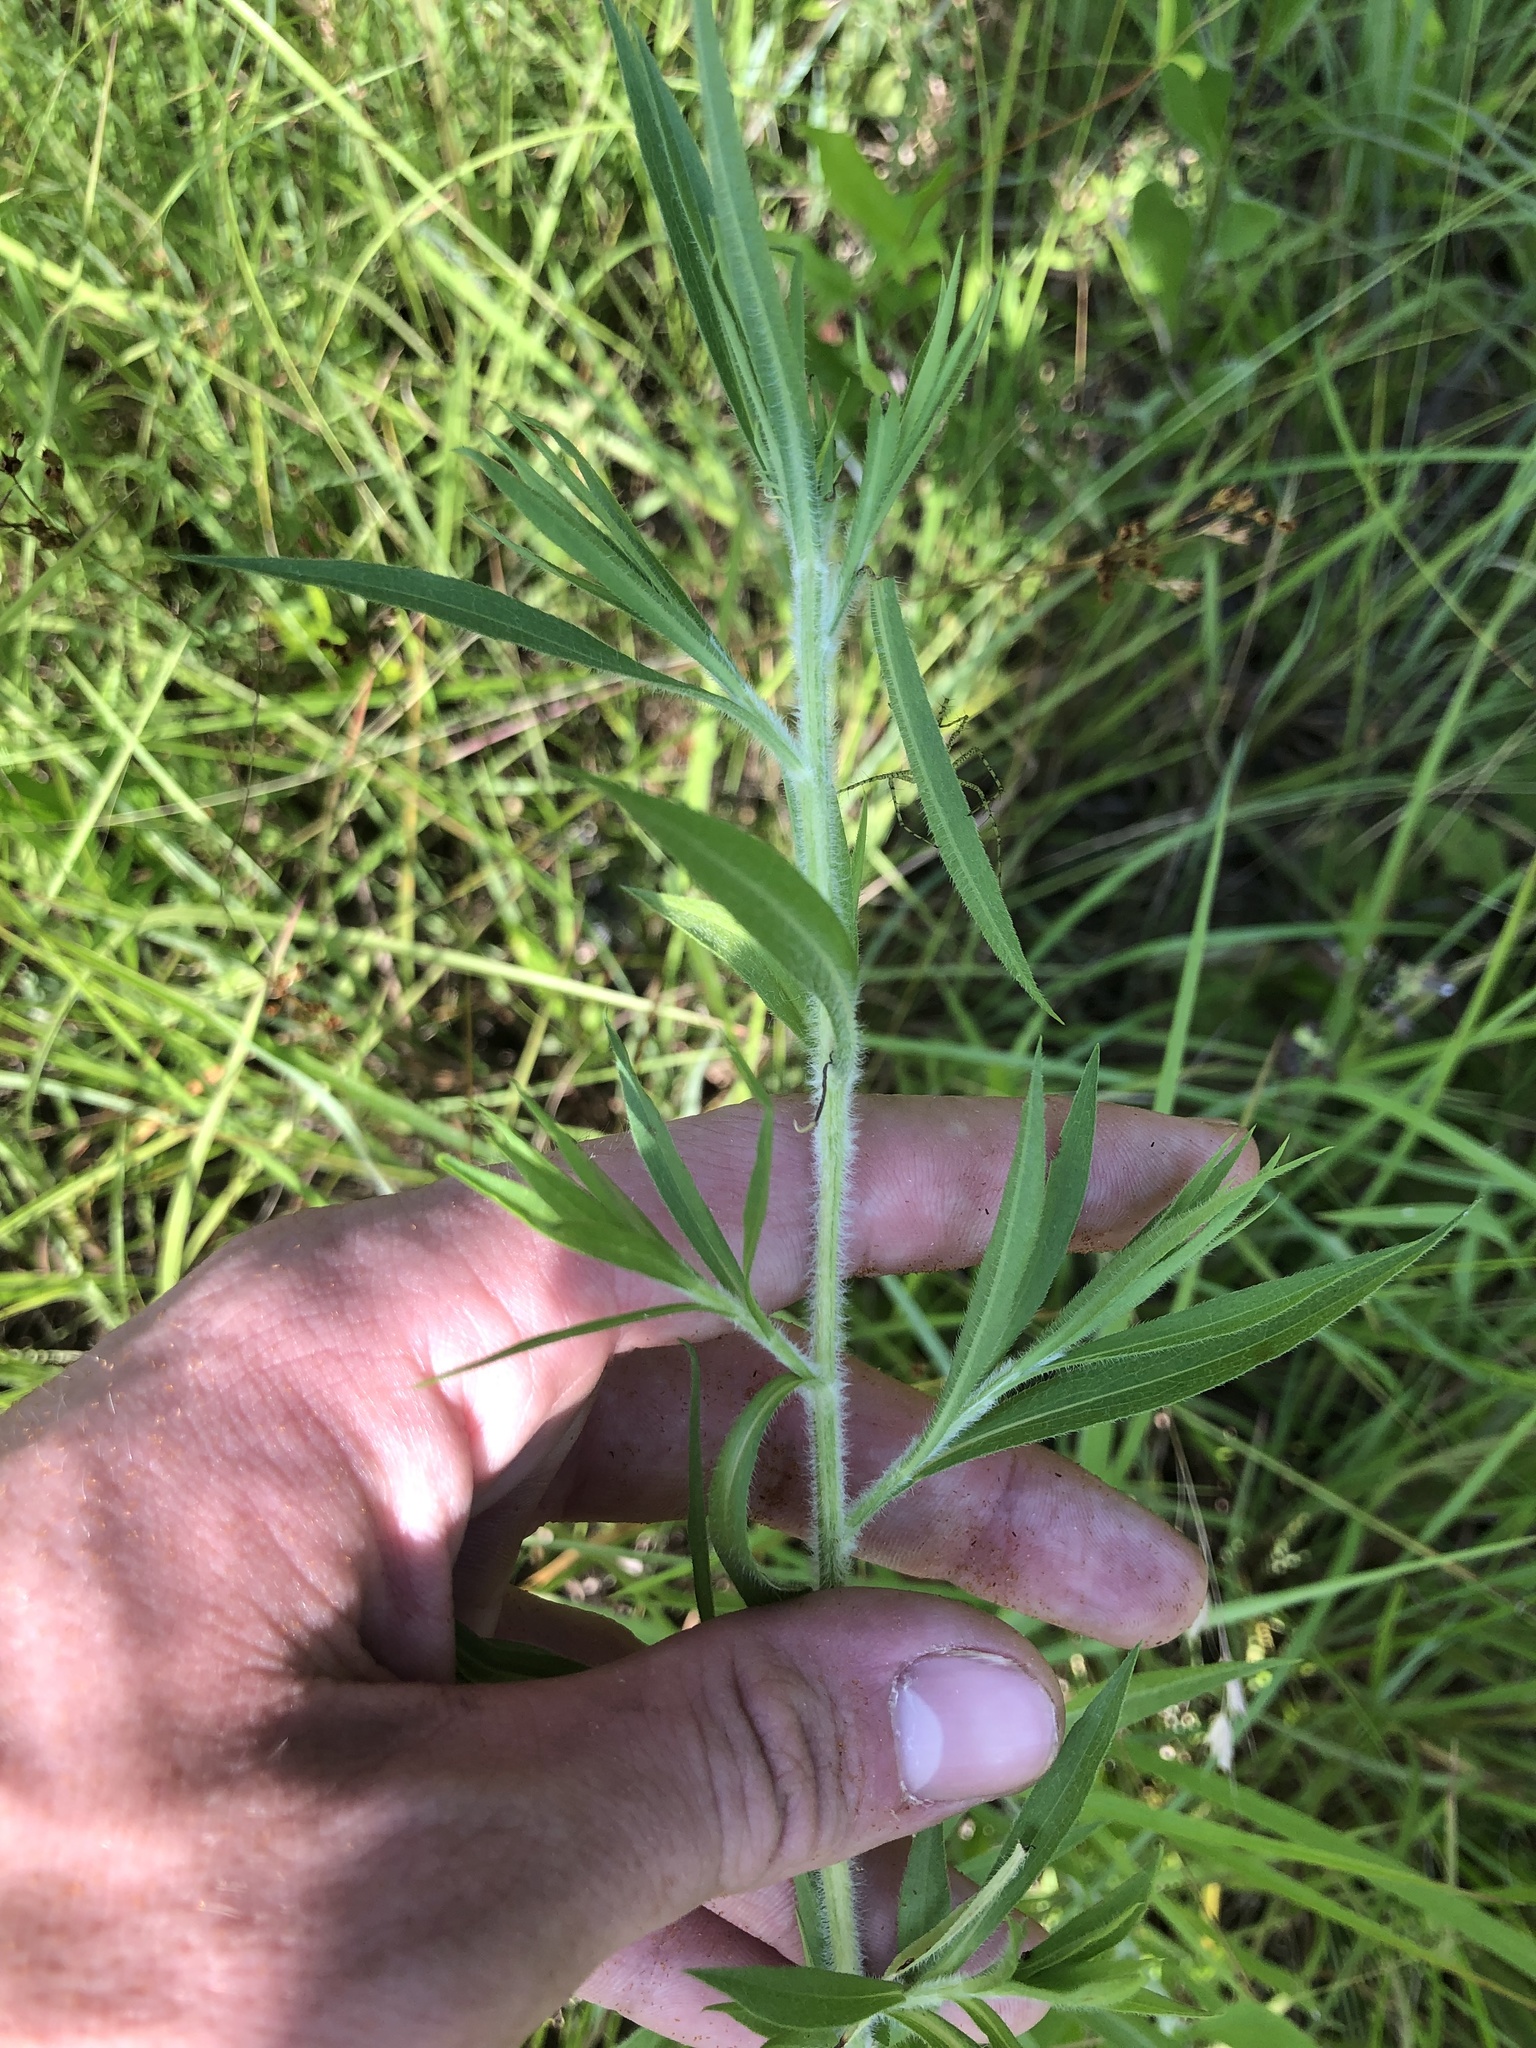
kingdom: Plantae
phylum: Tracheophyta
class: Magnoliopsida
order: Asterales
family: Asteraceae
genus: Symphyotrichum
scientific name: Symphyotrichum pilosum
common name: Awl aster
